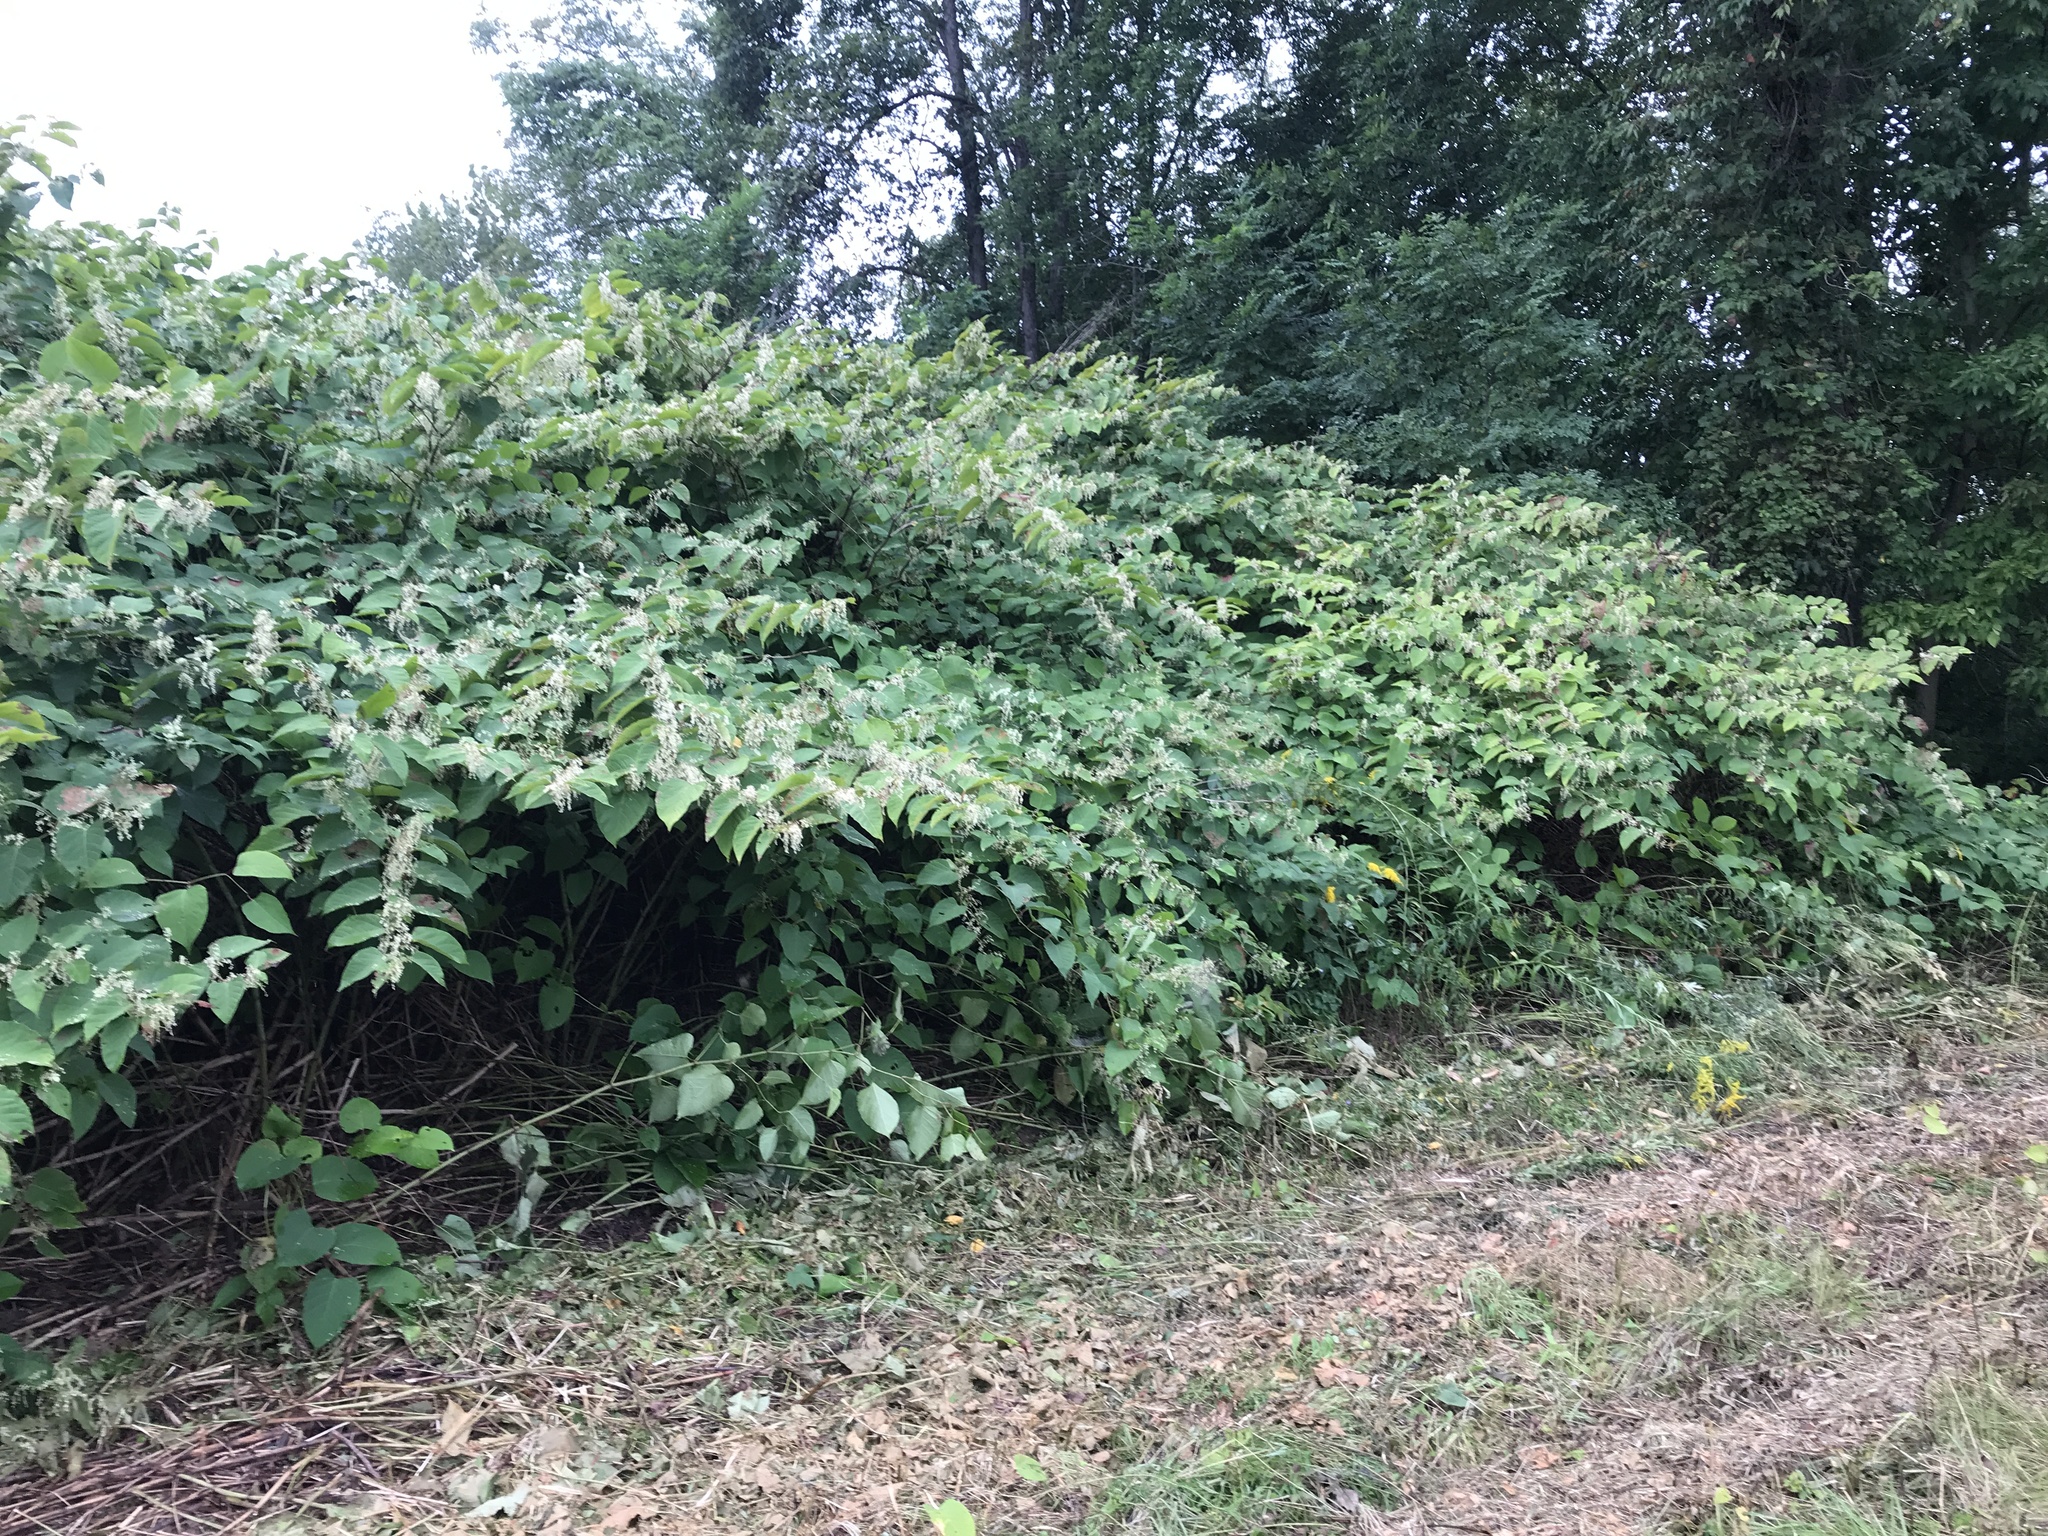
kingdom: Plantae
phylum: Tracheophyta
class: Magnoliopsida
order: Caryophyllales
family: Polygonaceae
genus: Reynoutria
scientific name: Reynoutria japonica
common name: Japanese knotweed
